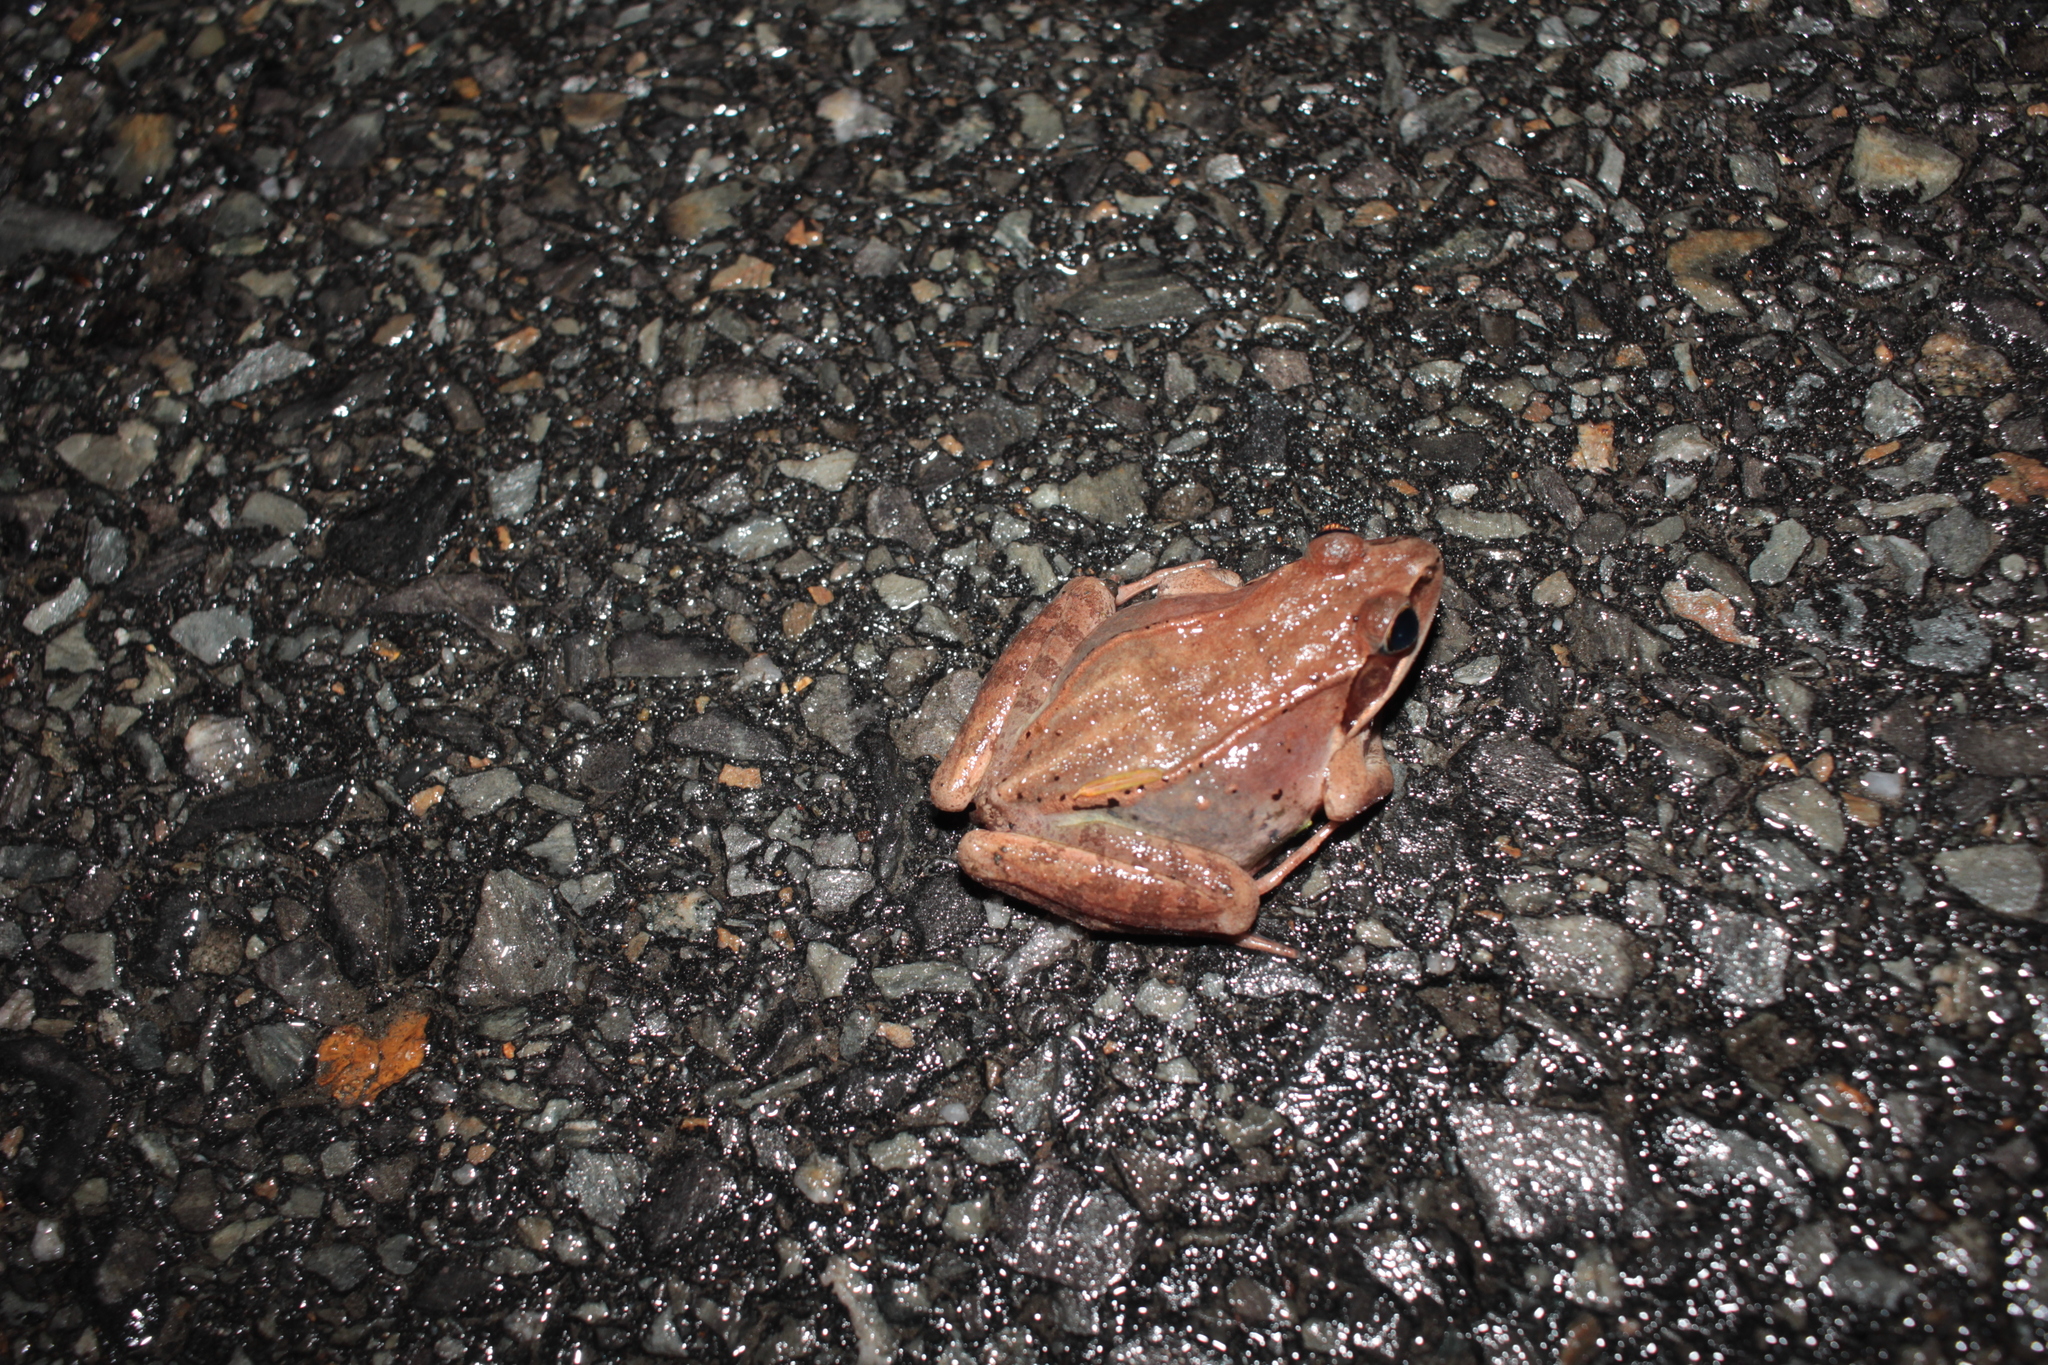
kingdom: Animalia
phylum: Chordata
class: Amphibia
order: Anura
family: Ranidae
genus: Lithobates
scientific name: Lithobates sylvaticus
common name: Wood frog
